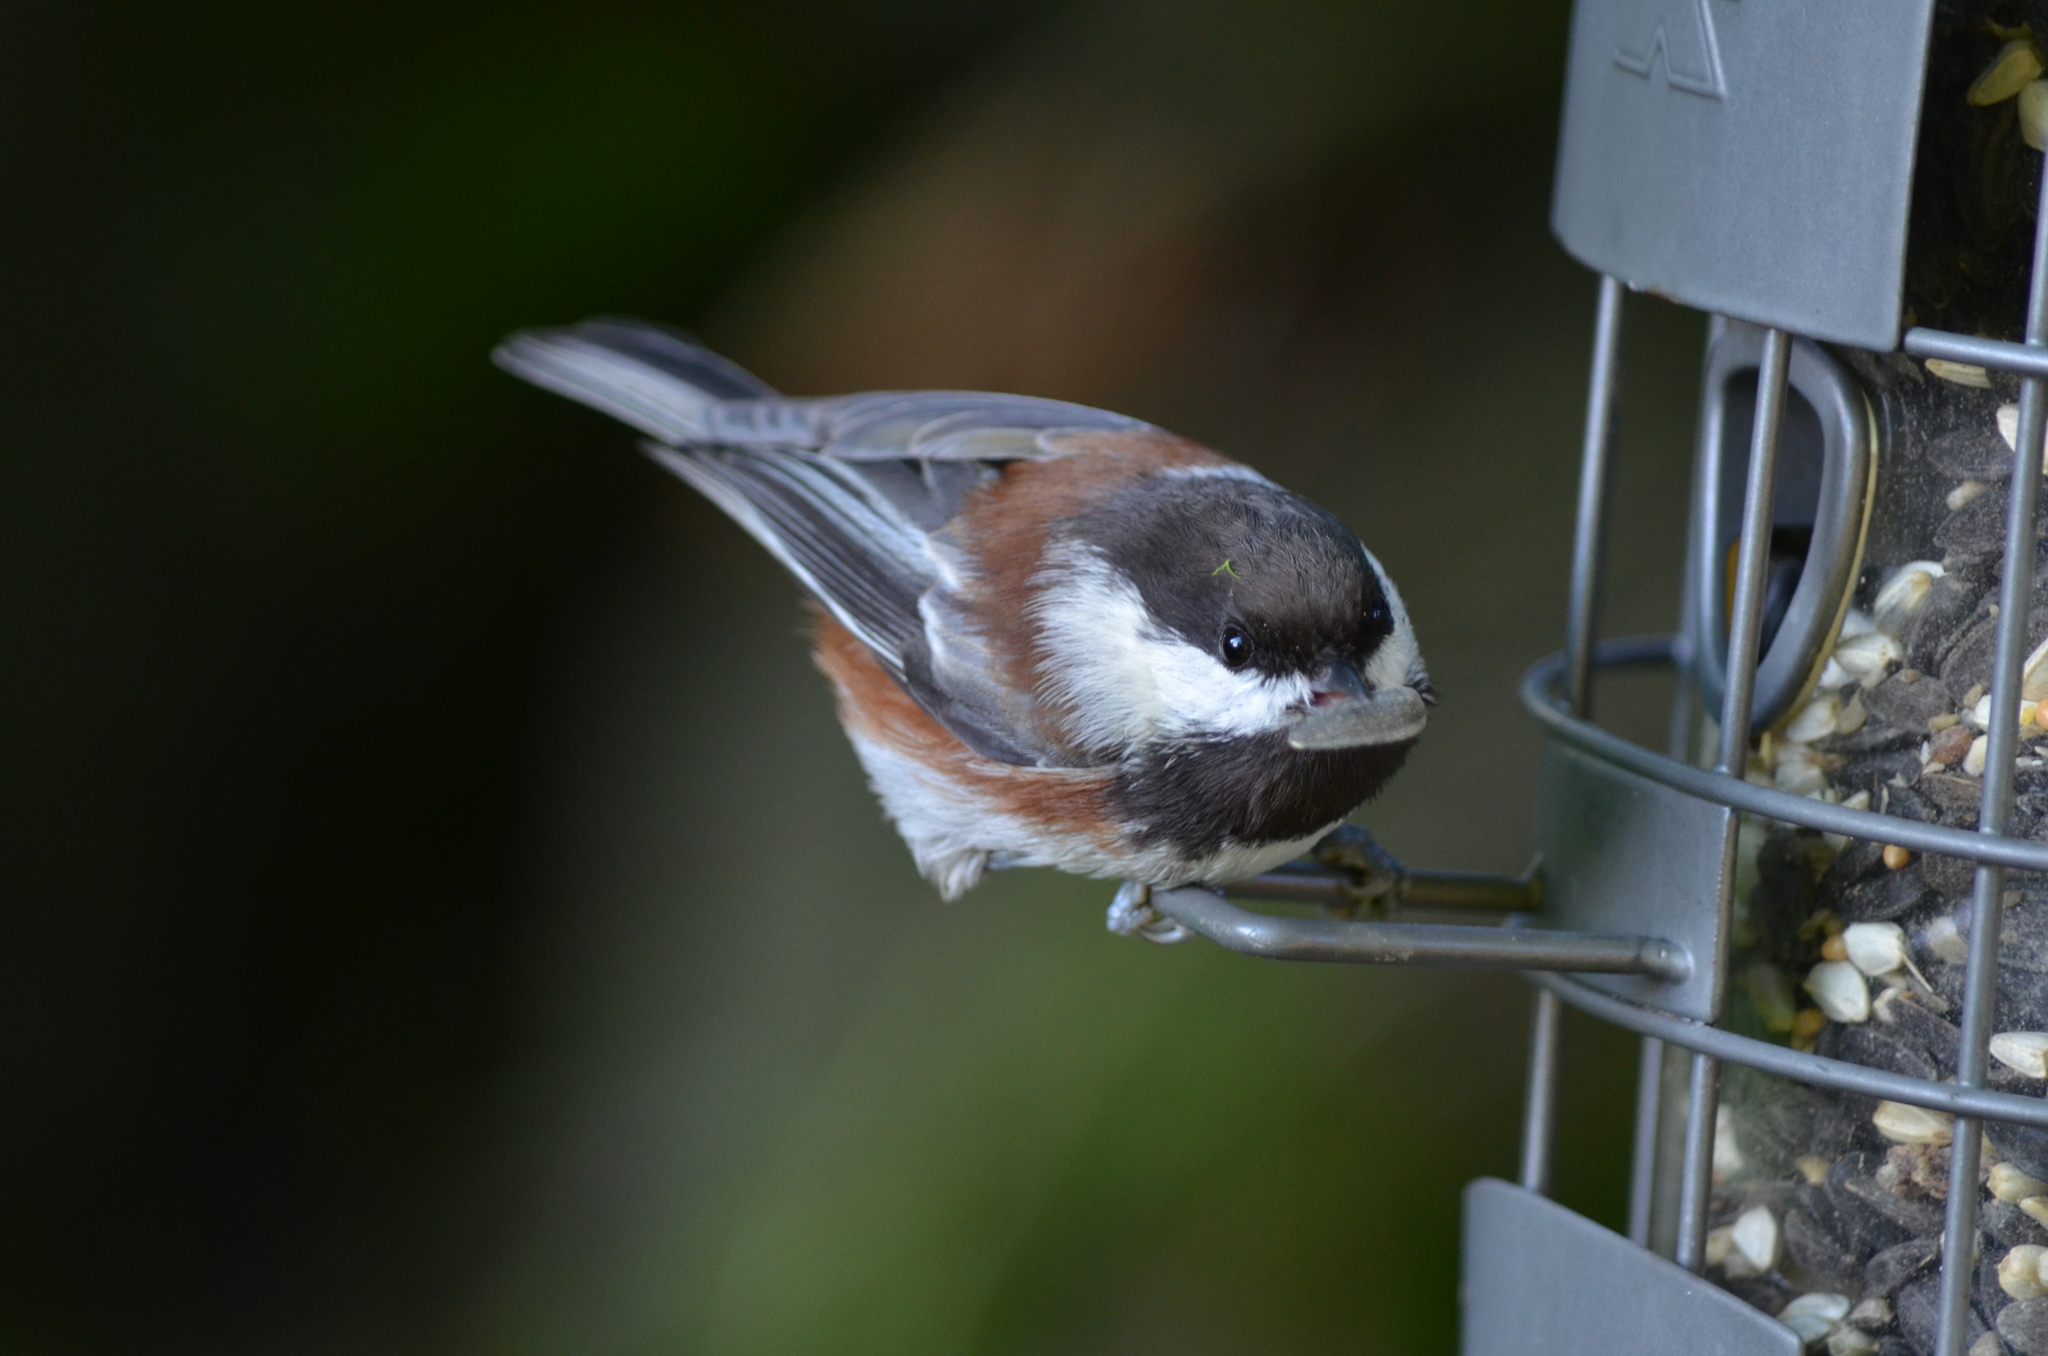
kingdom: Animalia
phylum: Chordata
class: Aves
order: Passeriformes
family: Paridae
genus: Poecile
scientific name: Poecile rufescens
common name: Chestnut-backed chickadee
